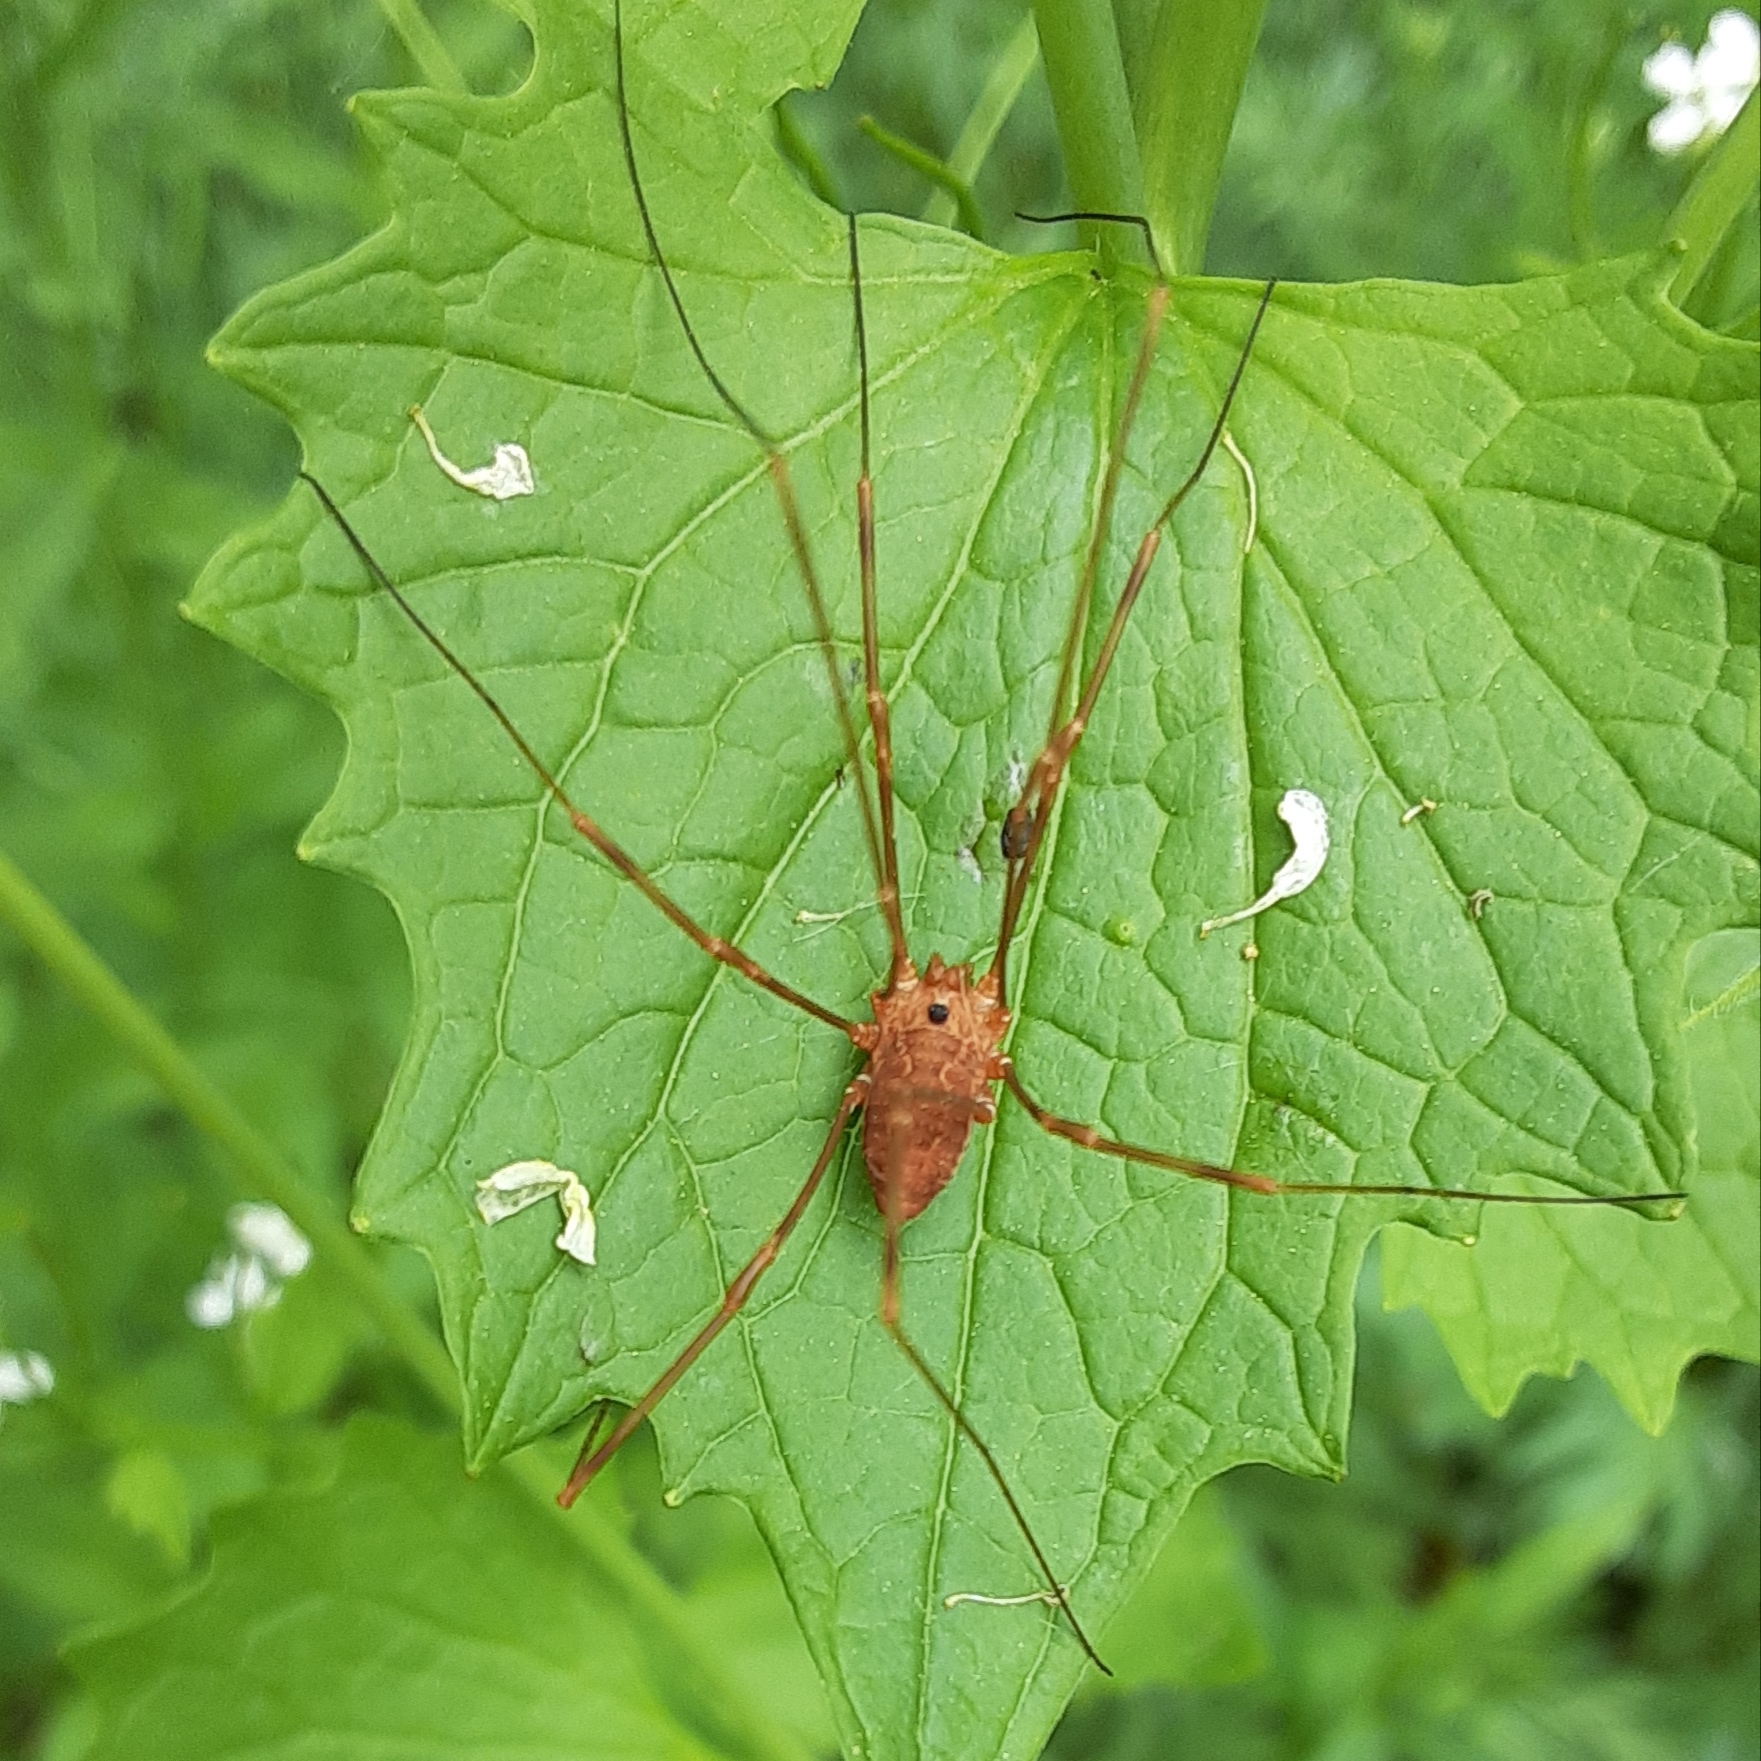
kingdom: Animalia
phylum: Arthropoda
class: Arachnida
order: Opiliones
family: Sclerosomatidae
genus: Leiobunum
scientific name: Leiobunum ventricosum
